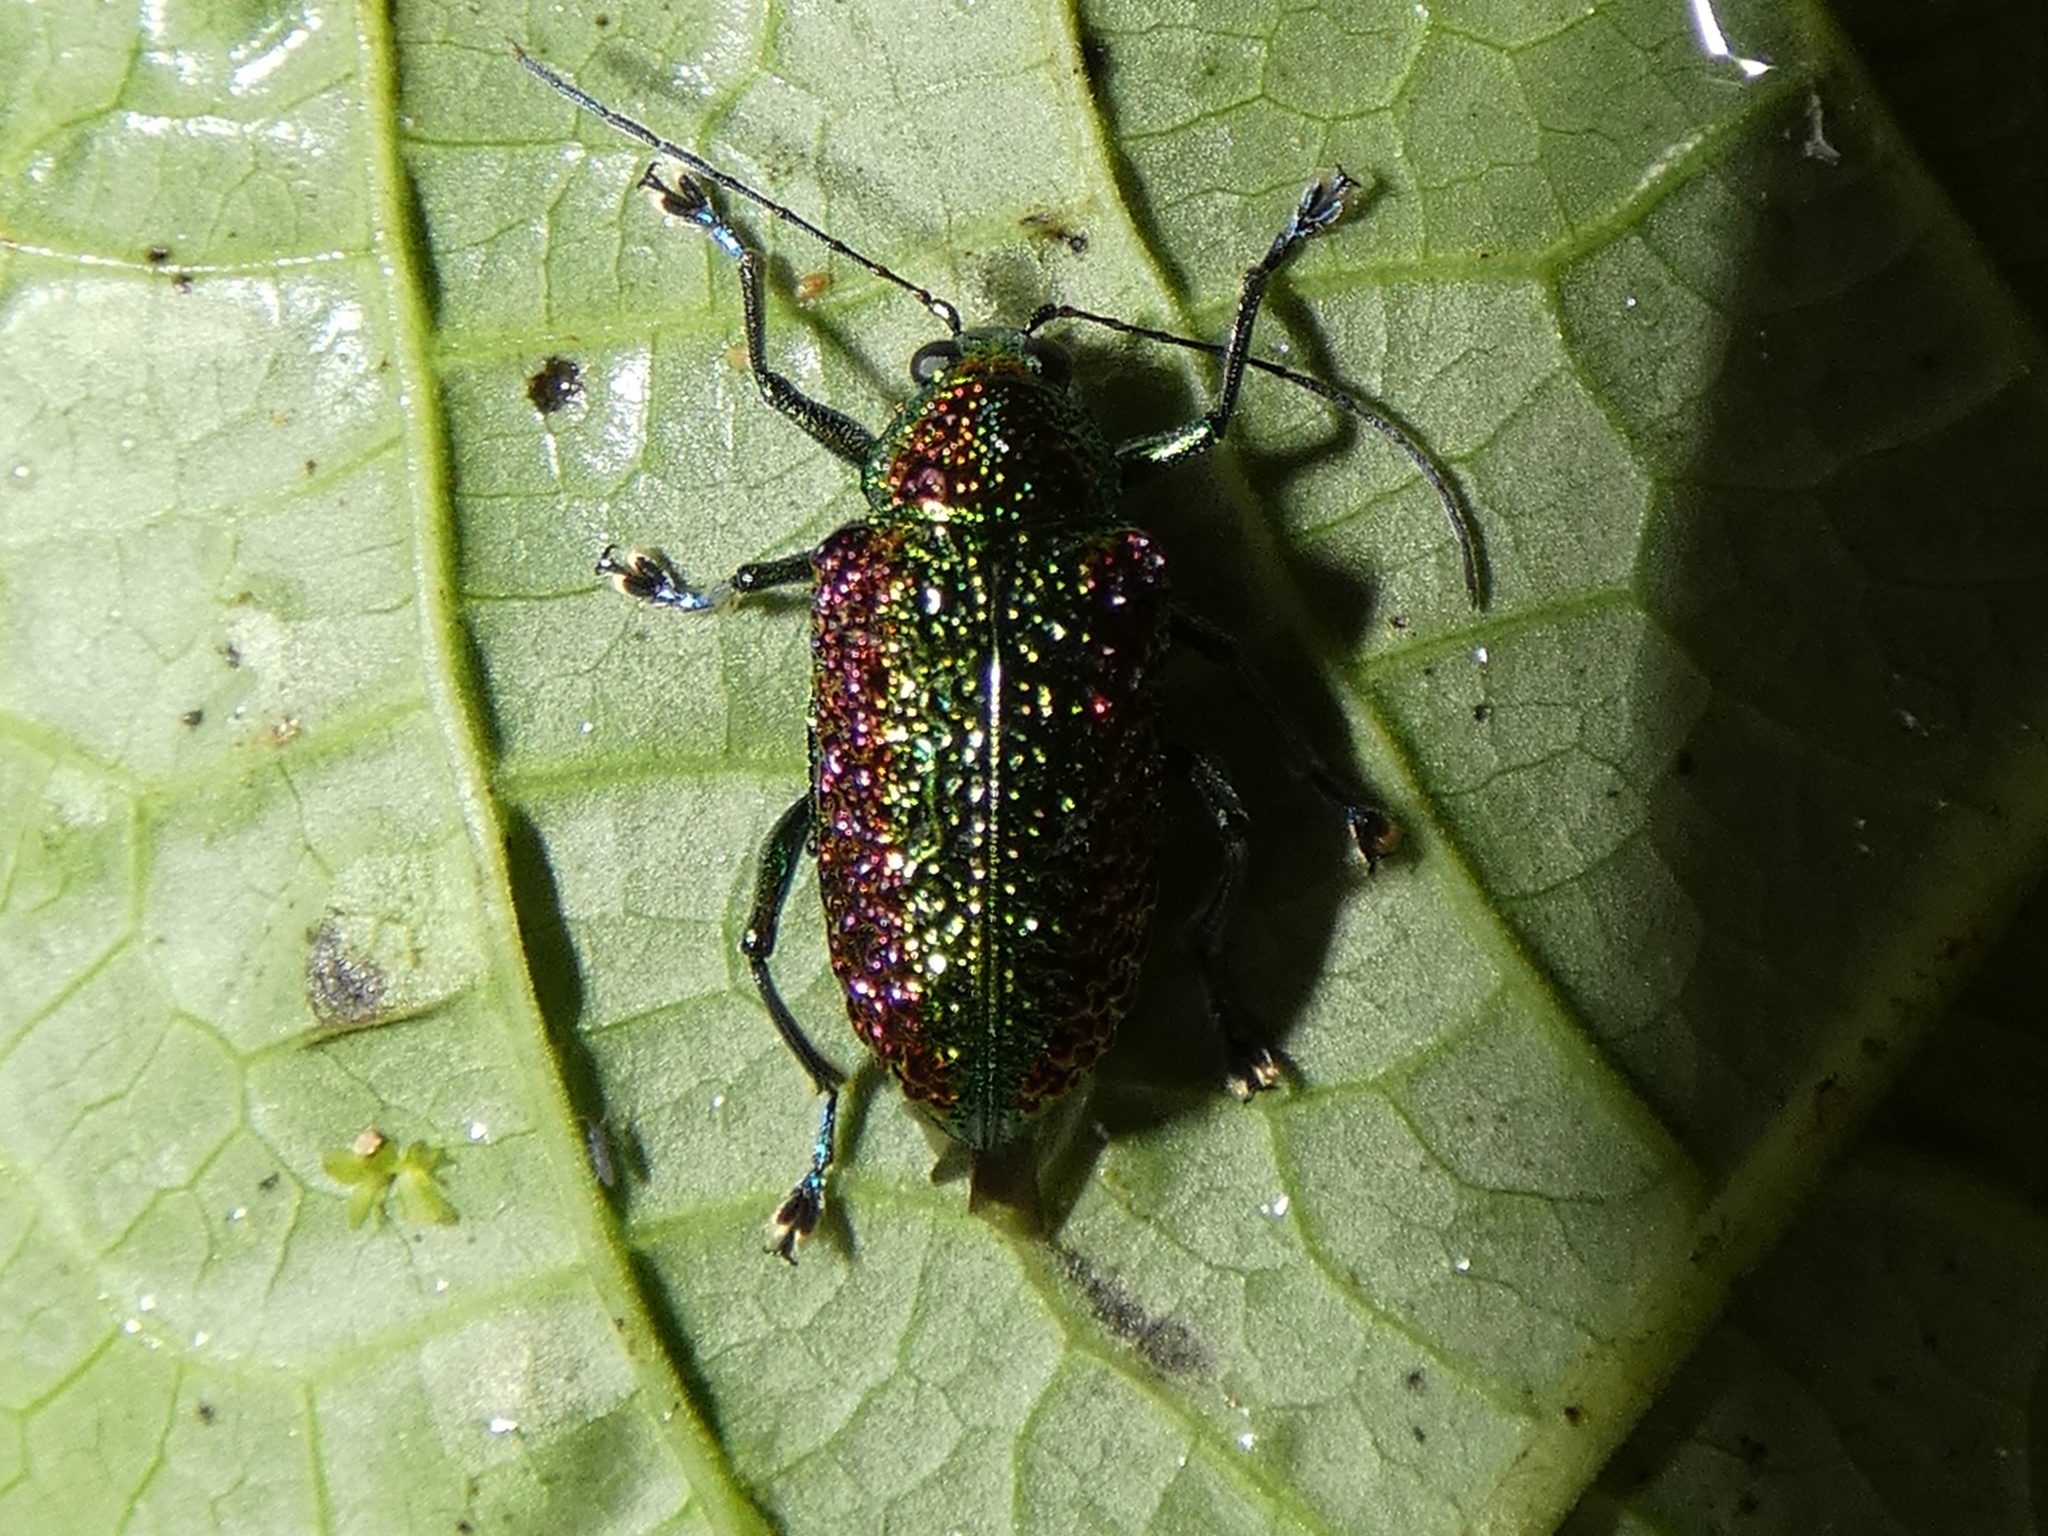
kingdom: Animalia
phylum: Arthropoda
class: Insecta
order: Coleoptera
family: Chrysomelidae
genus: Adorea
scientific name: Adorea
